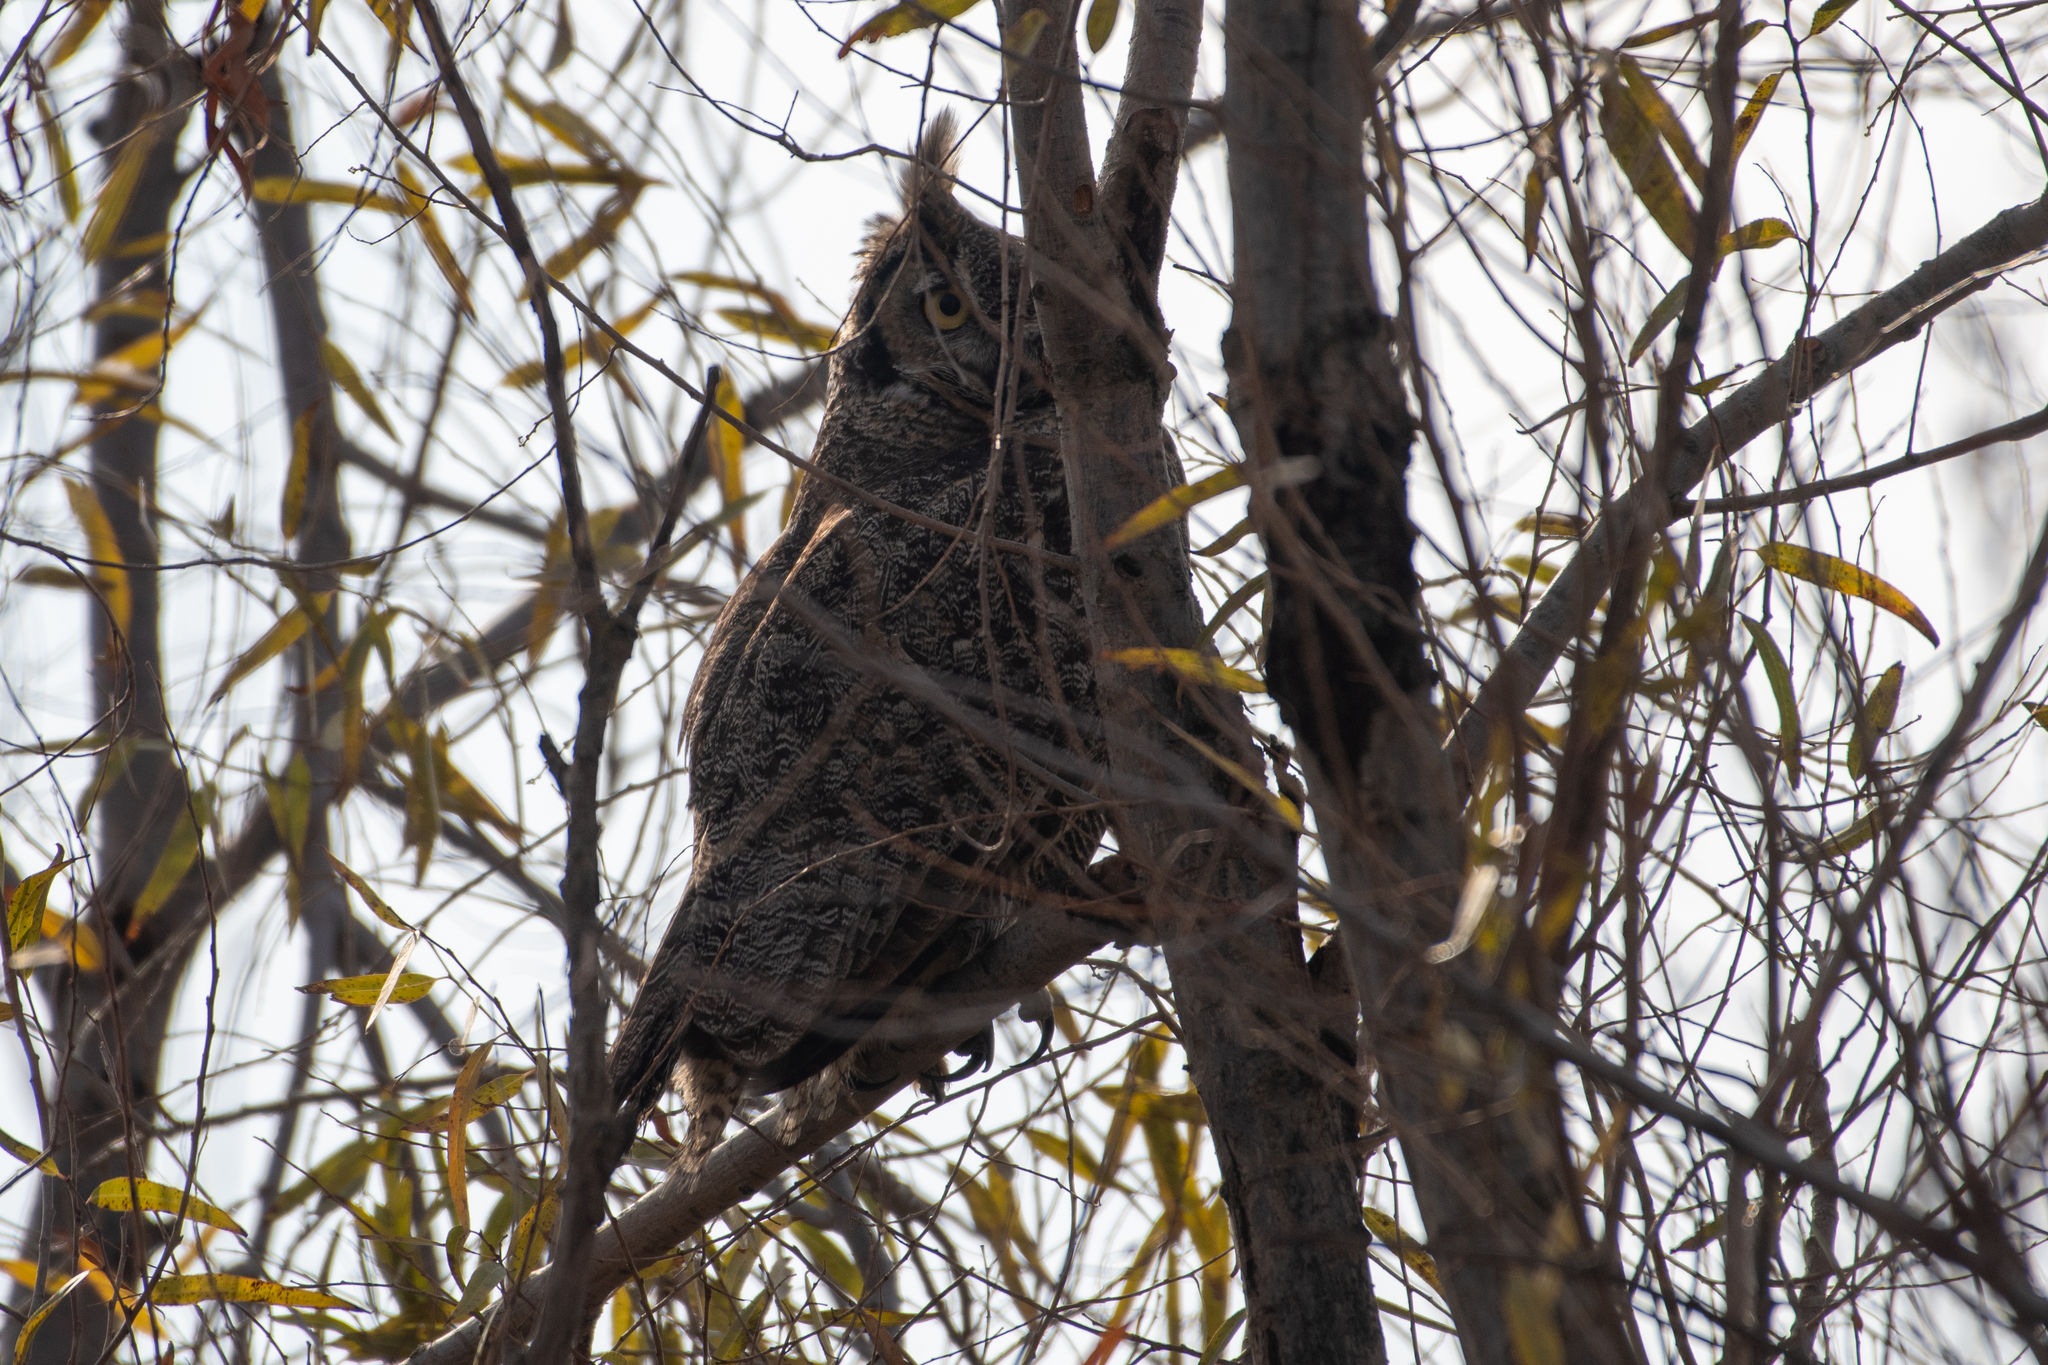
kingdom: Animalia
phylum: Chordata
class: Aves
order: Strigiformes
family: Strigidae
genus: Bubo
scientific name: Bubo virginianus
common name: Great horned owl
